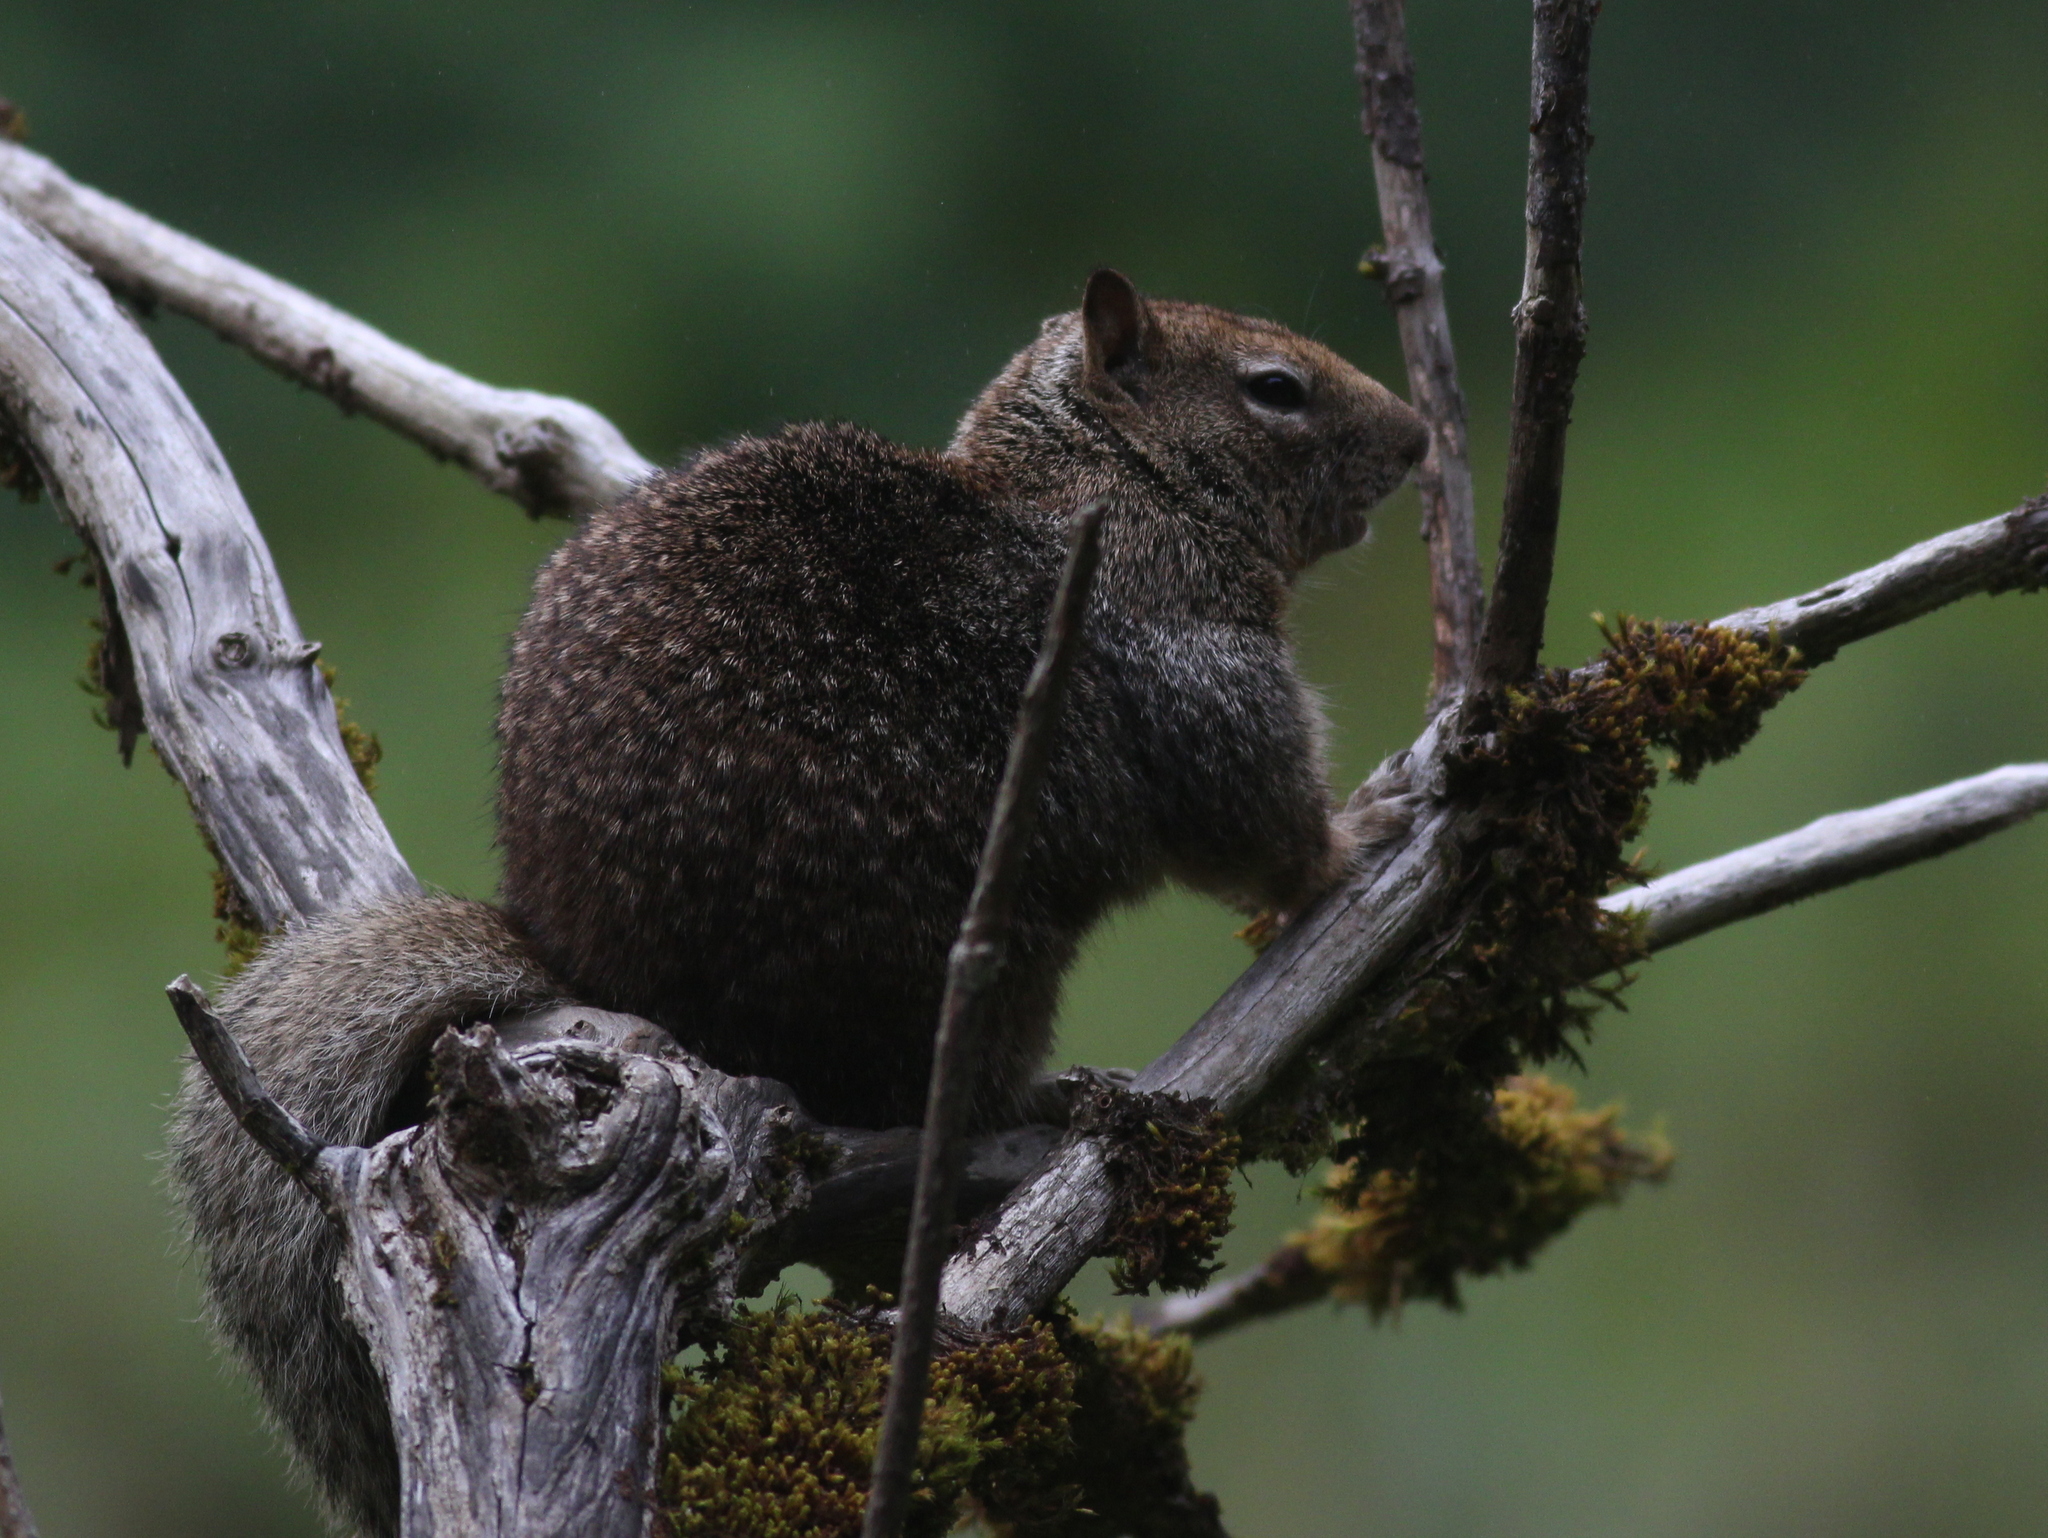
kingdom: Animalia
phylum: Chordata
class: Mammalia
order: Rodentia
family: Sciuridae
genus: Otospermophilus
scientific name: Otospermophilus beecheyi
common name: California ground squirrel
